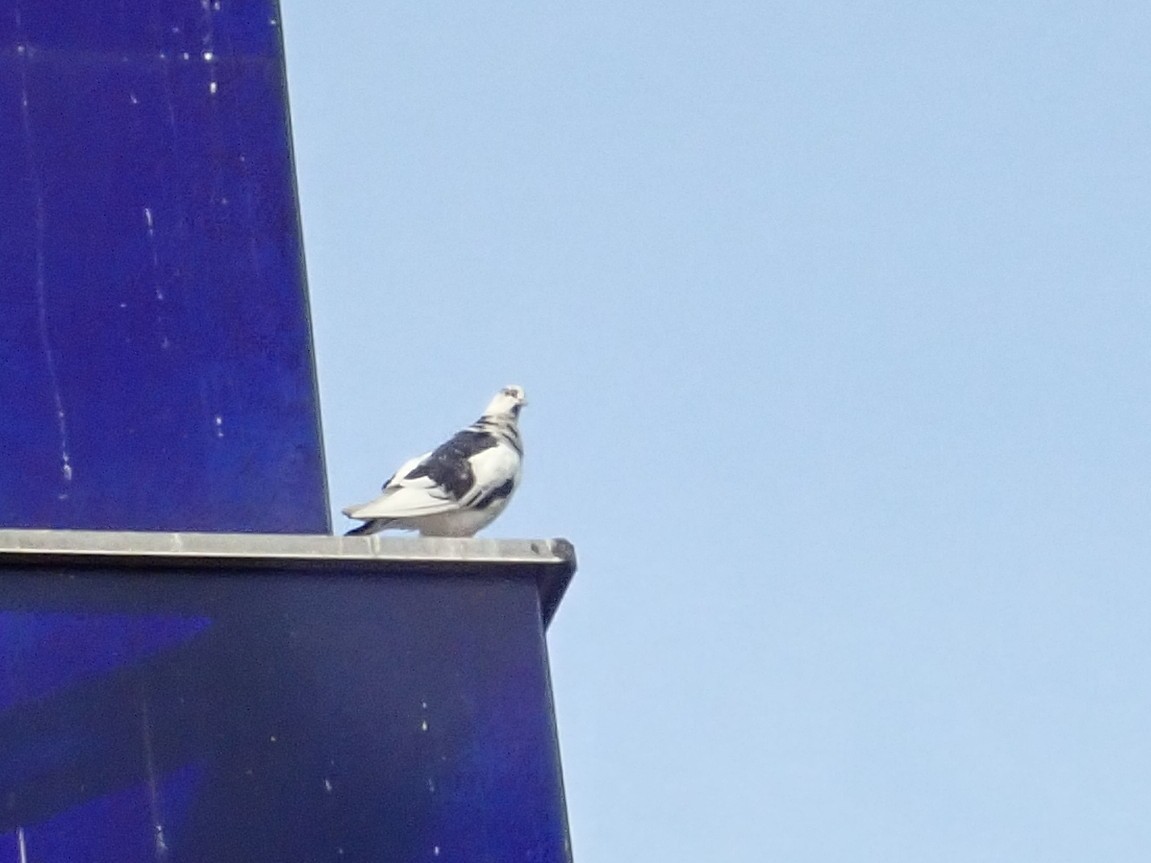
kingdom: Animalia
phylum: Chordata
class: Aves
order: Columbiformes
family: Columbidae
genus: Columba
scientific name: Columba livia
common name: Rock pigeon
